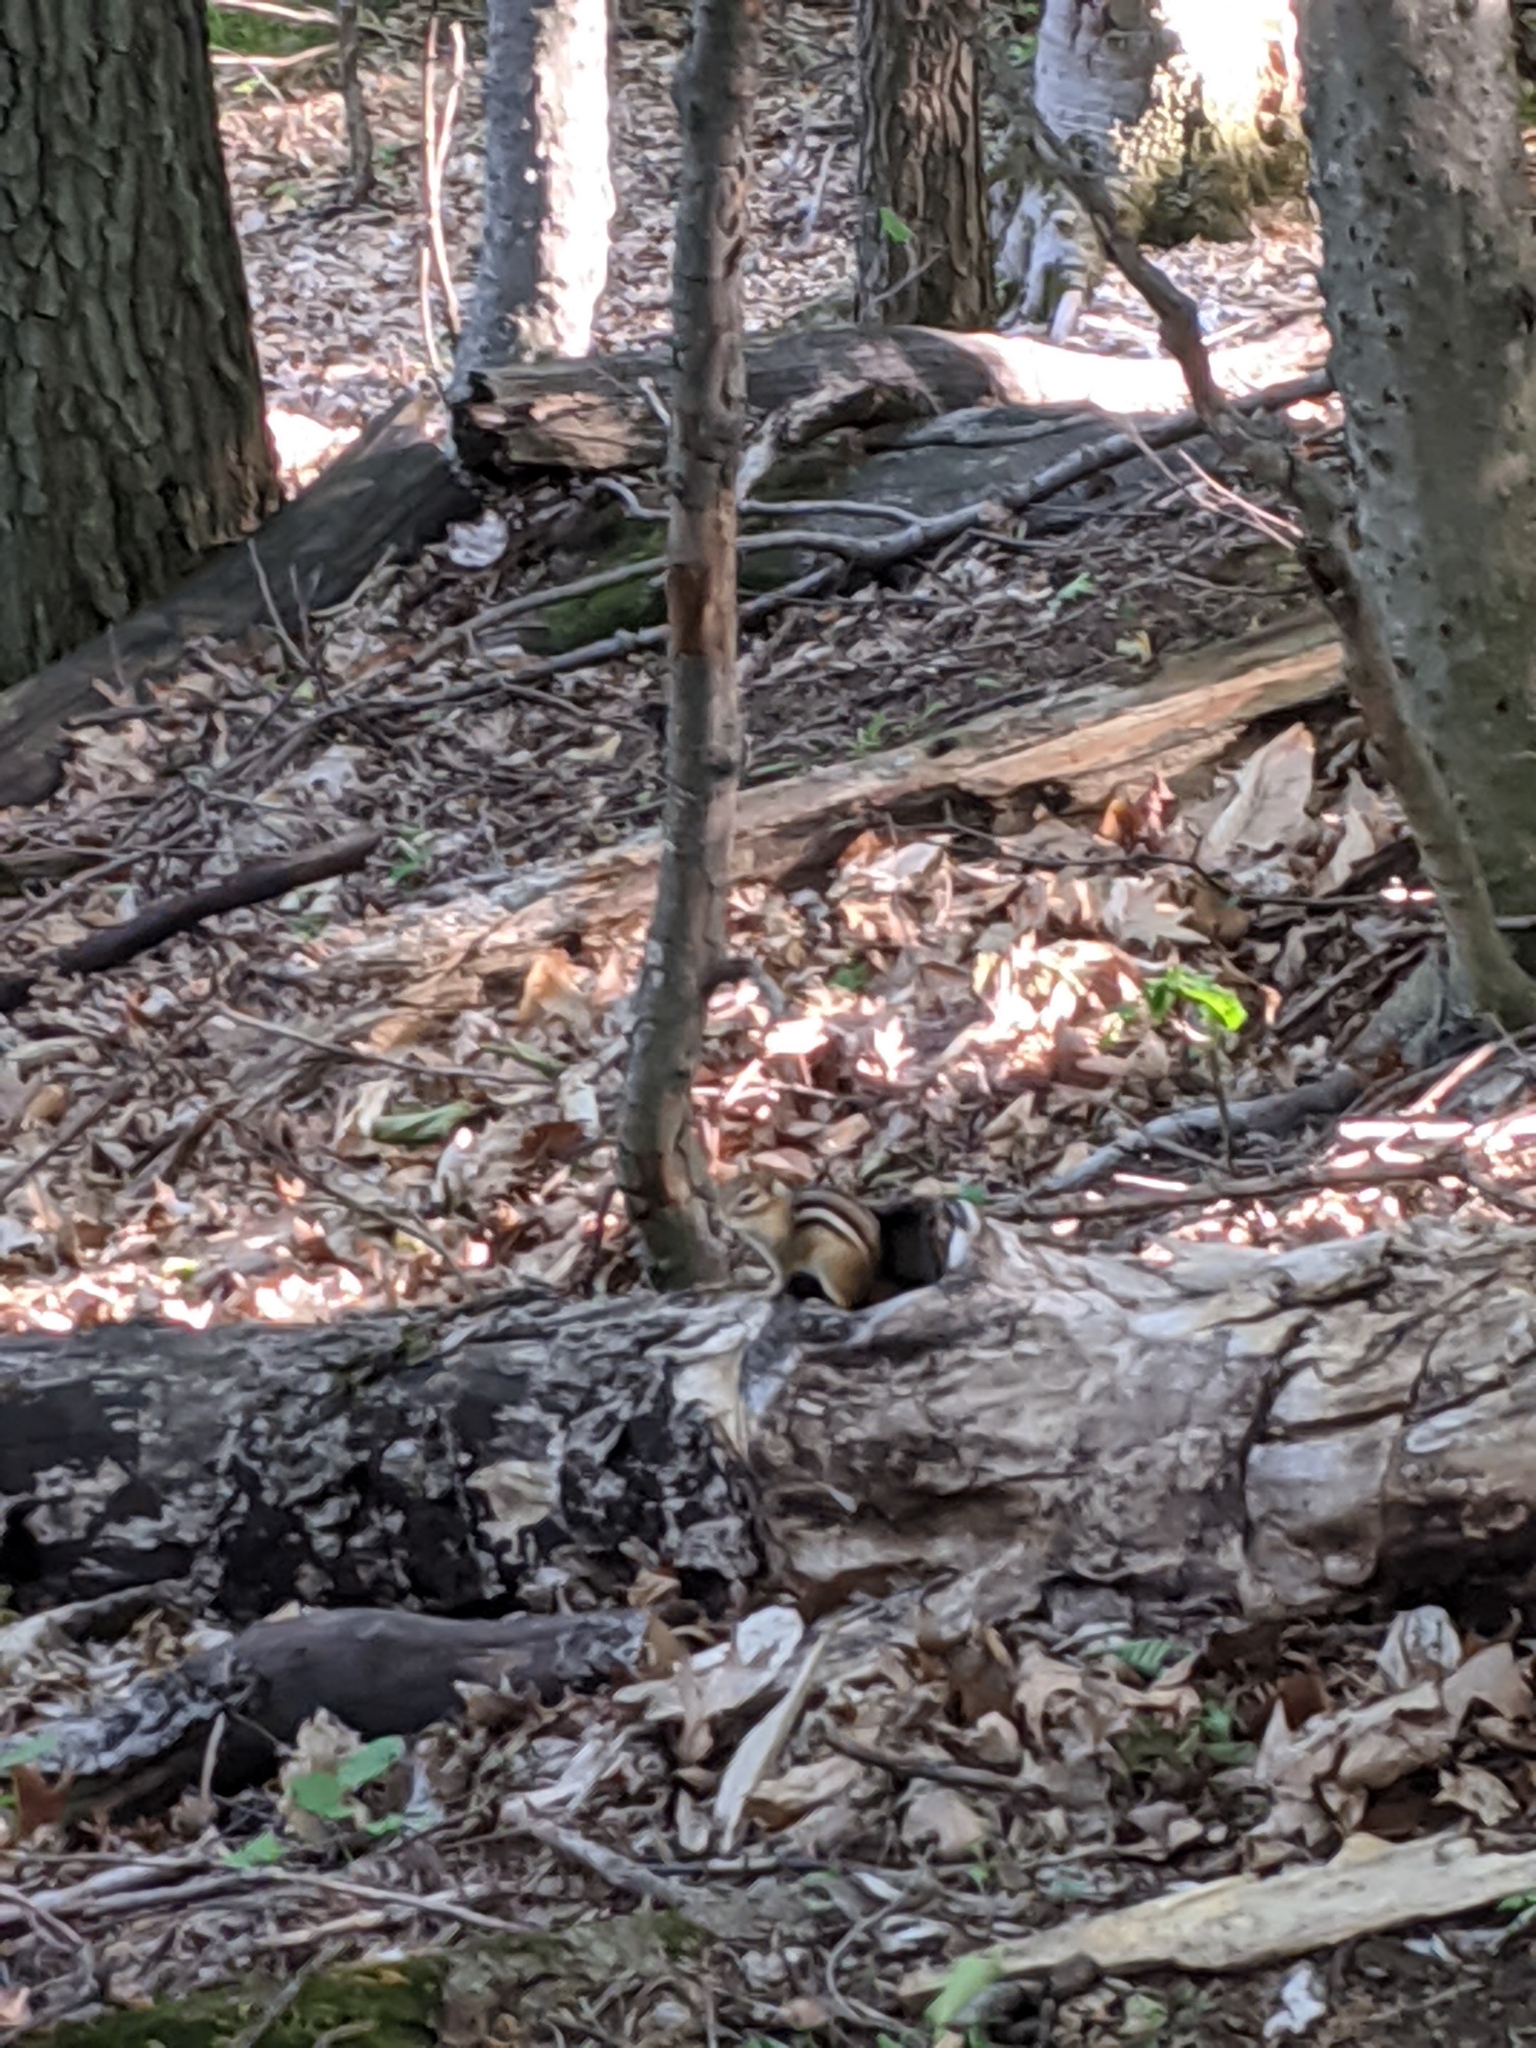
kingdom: Animalia
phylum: Chordata
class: Mammalia
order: Rodentia
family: Sciuridae
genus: Tamias
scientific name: Tamias striatus
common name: Eastern chipmunk
